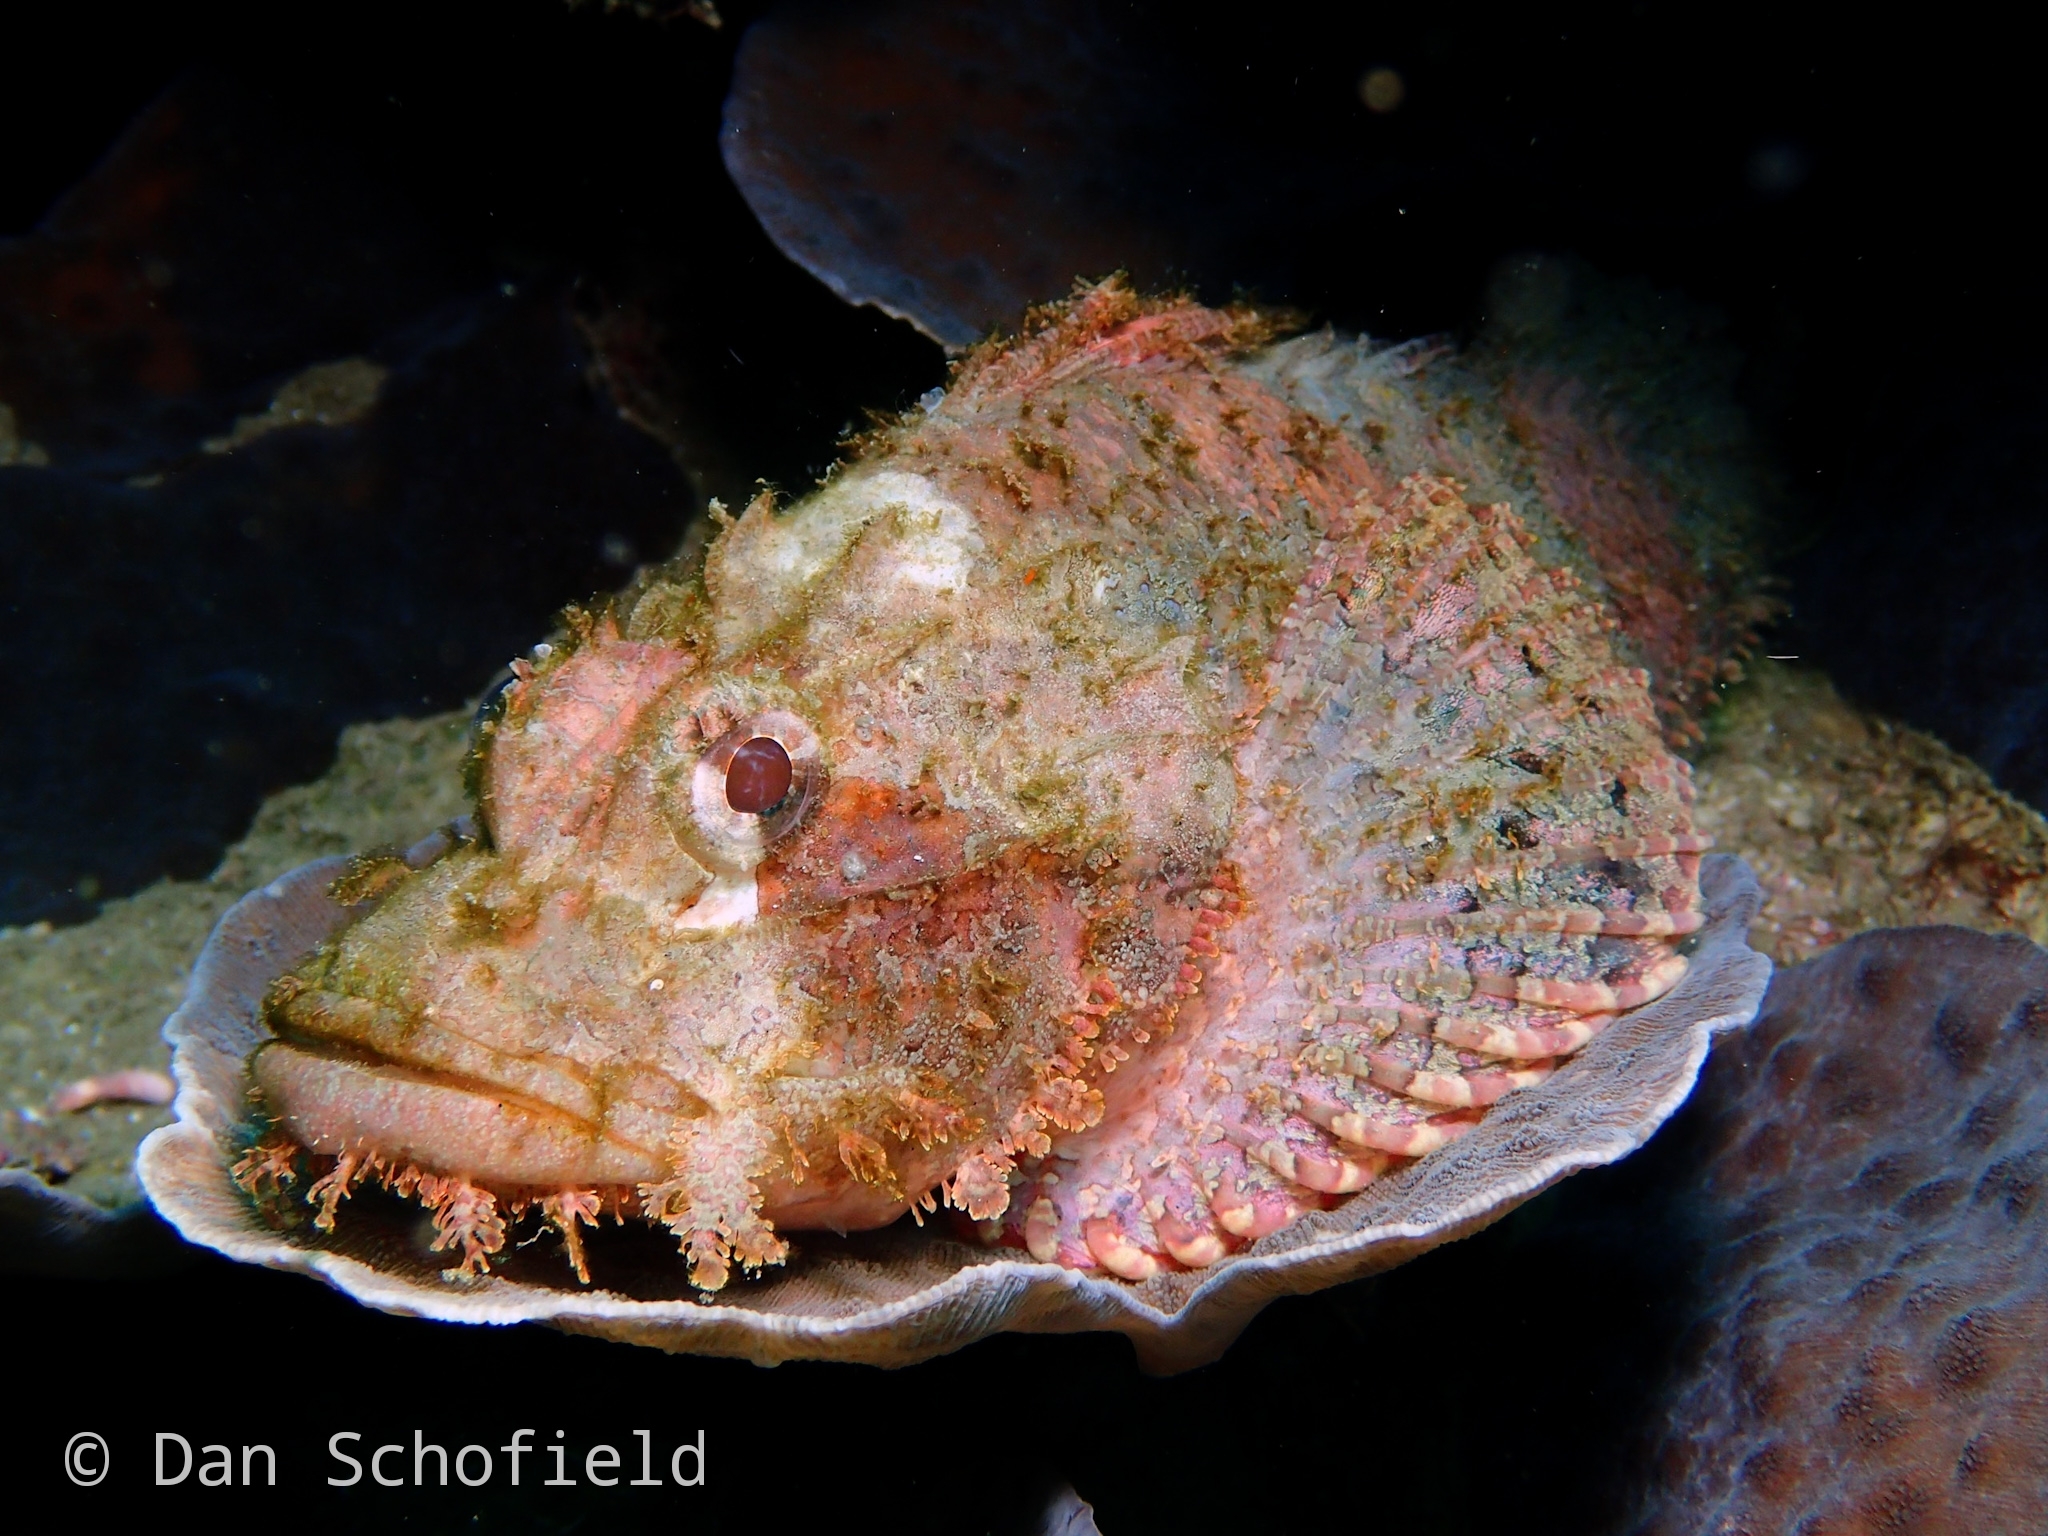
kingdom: Animalia
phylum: Chordata
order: Scorpaeniformes
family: Scorpaenidae
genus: Scorpaenopsis
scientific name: Scorpaenopsis oxycephala
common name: Smallscale scorpionfish
